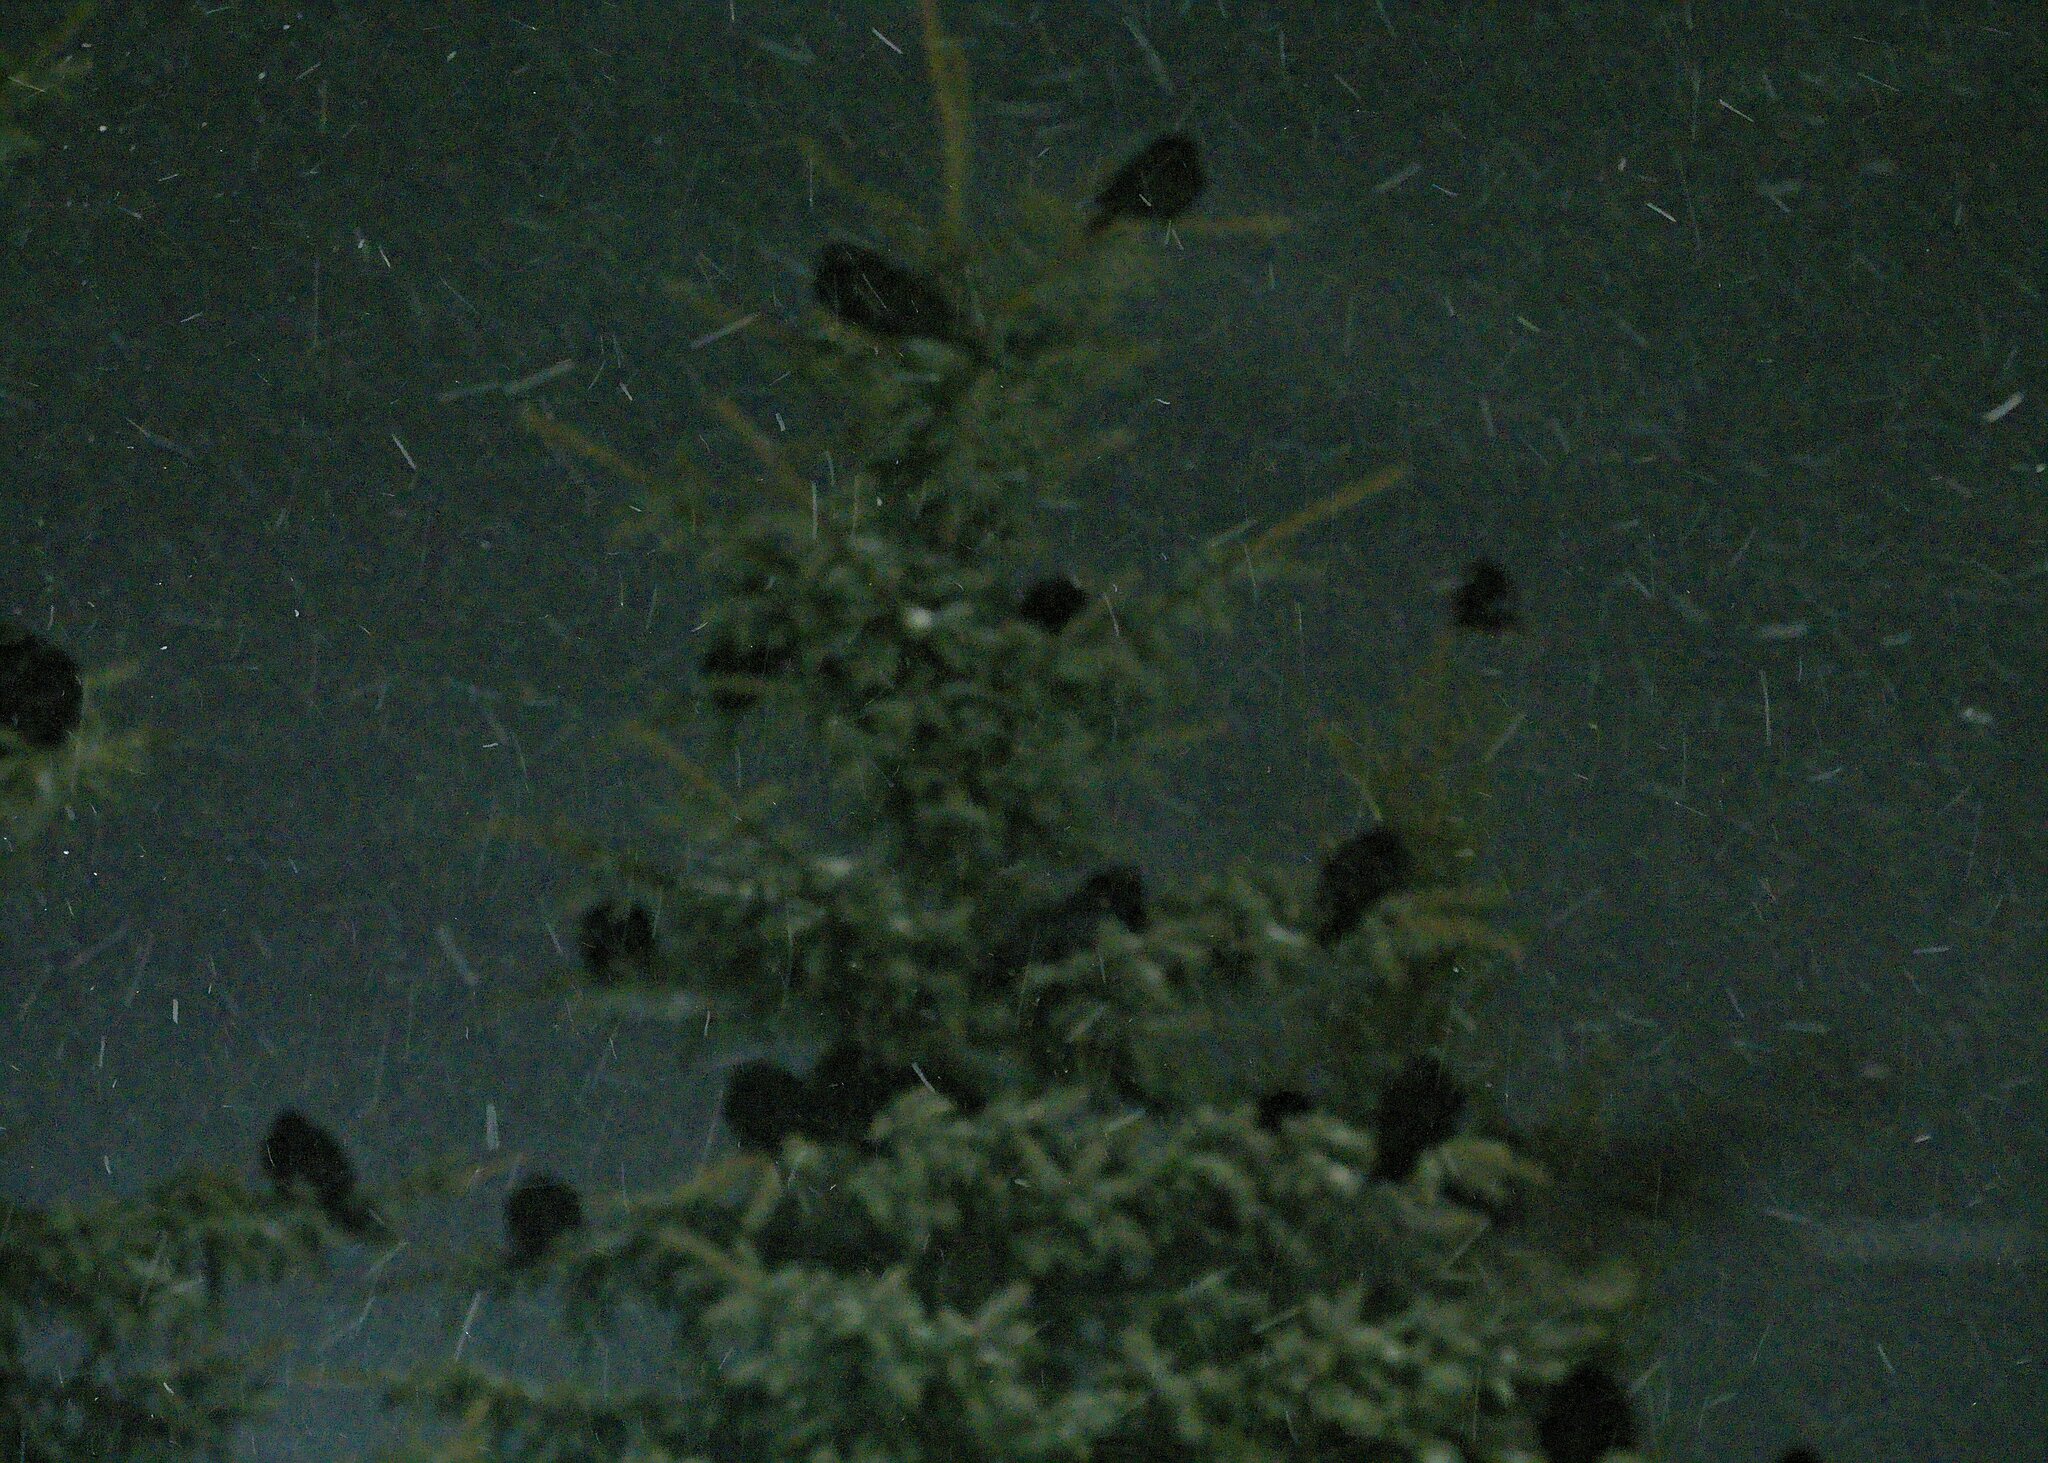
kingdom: Animalia
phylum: Chordata
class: Aves
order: Passeriformes
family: Corvidae
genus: Corvus
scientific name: Corvus brachyrhynchos
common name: American crow
